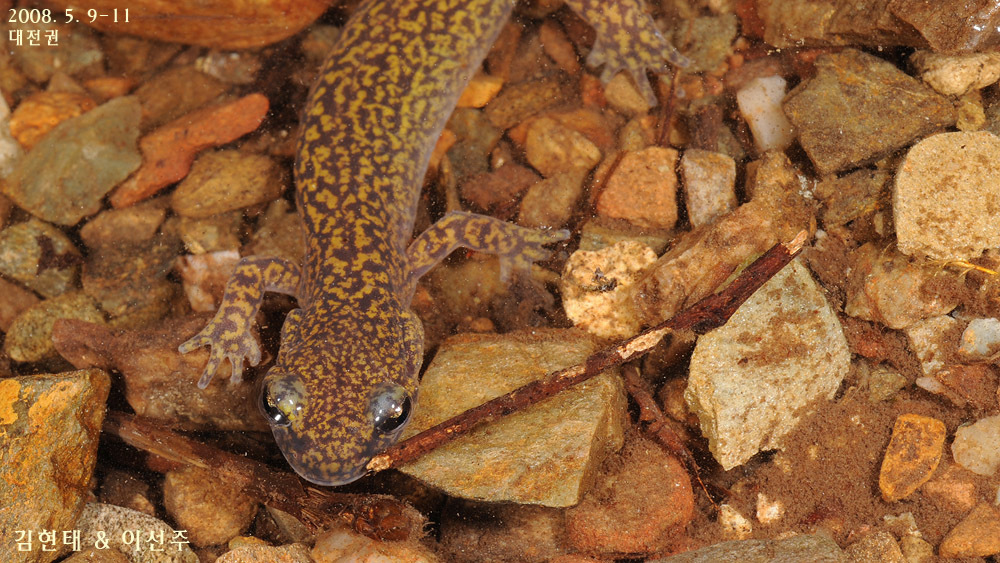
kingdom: Animalia
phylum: Chordata
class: Amphibia
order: Caudata
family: Hynobiidae
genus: Onychodactylus
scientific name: Onychodactylus koreanus
